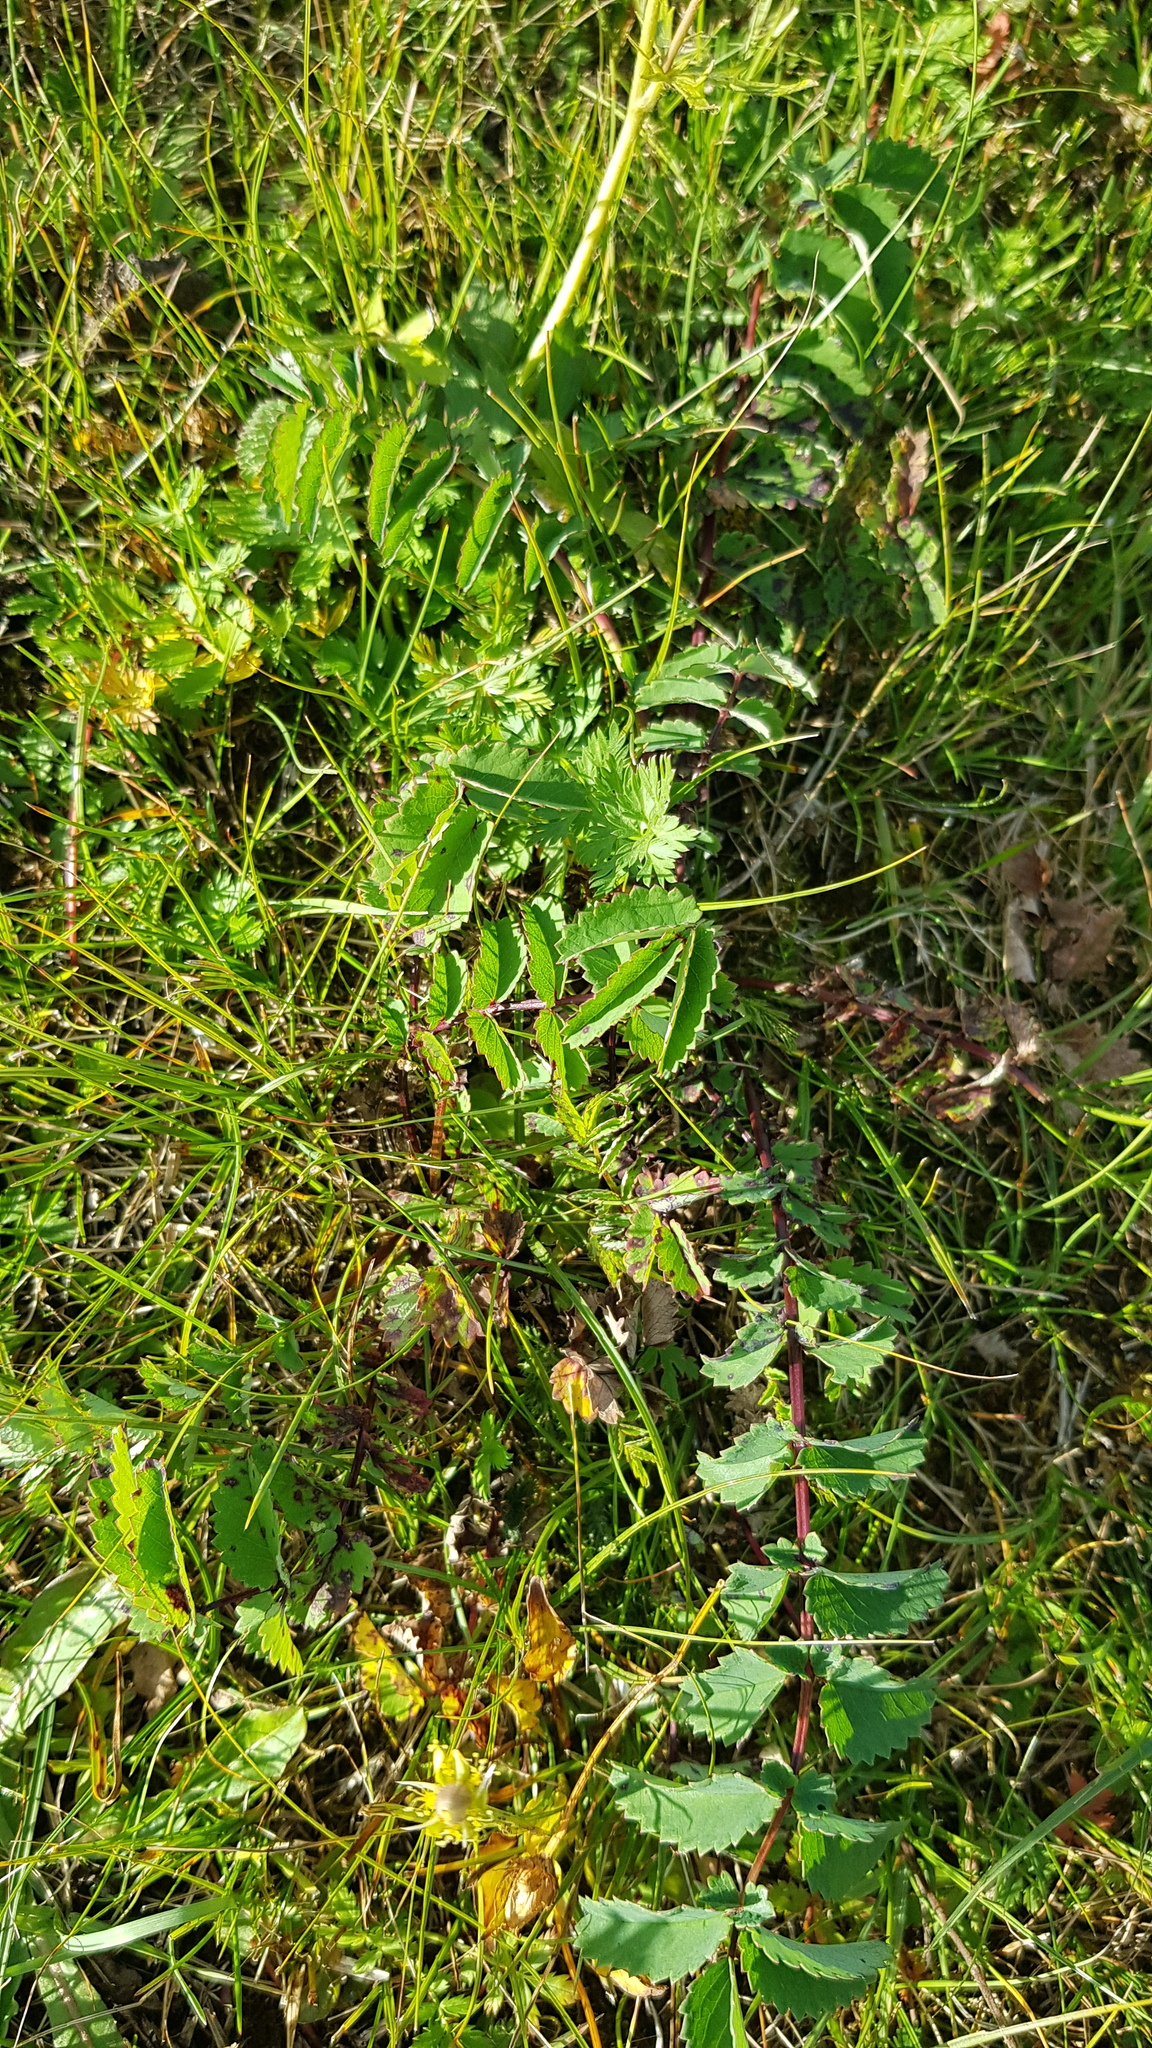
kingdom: Plantae
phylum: Tracheophyta
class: Magnoliopsida
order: Rosales
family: Rosaceae
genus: Sanguisorba
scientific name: Sanguisorba officinalis
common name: Great burnet
